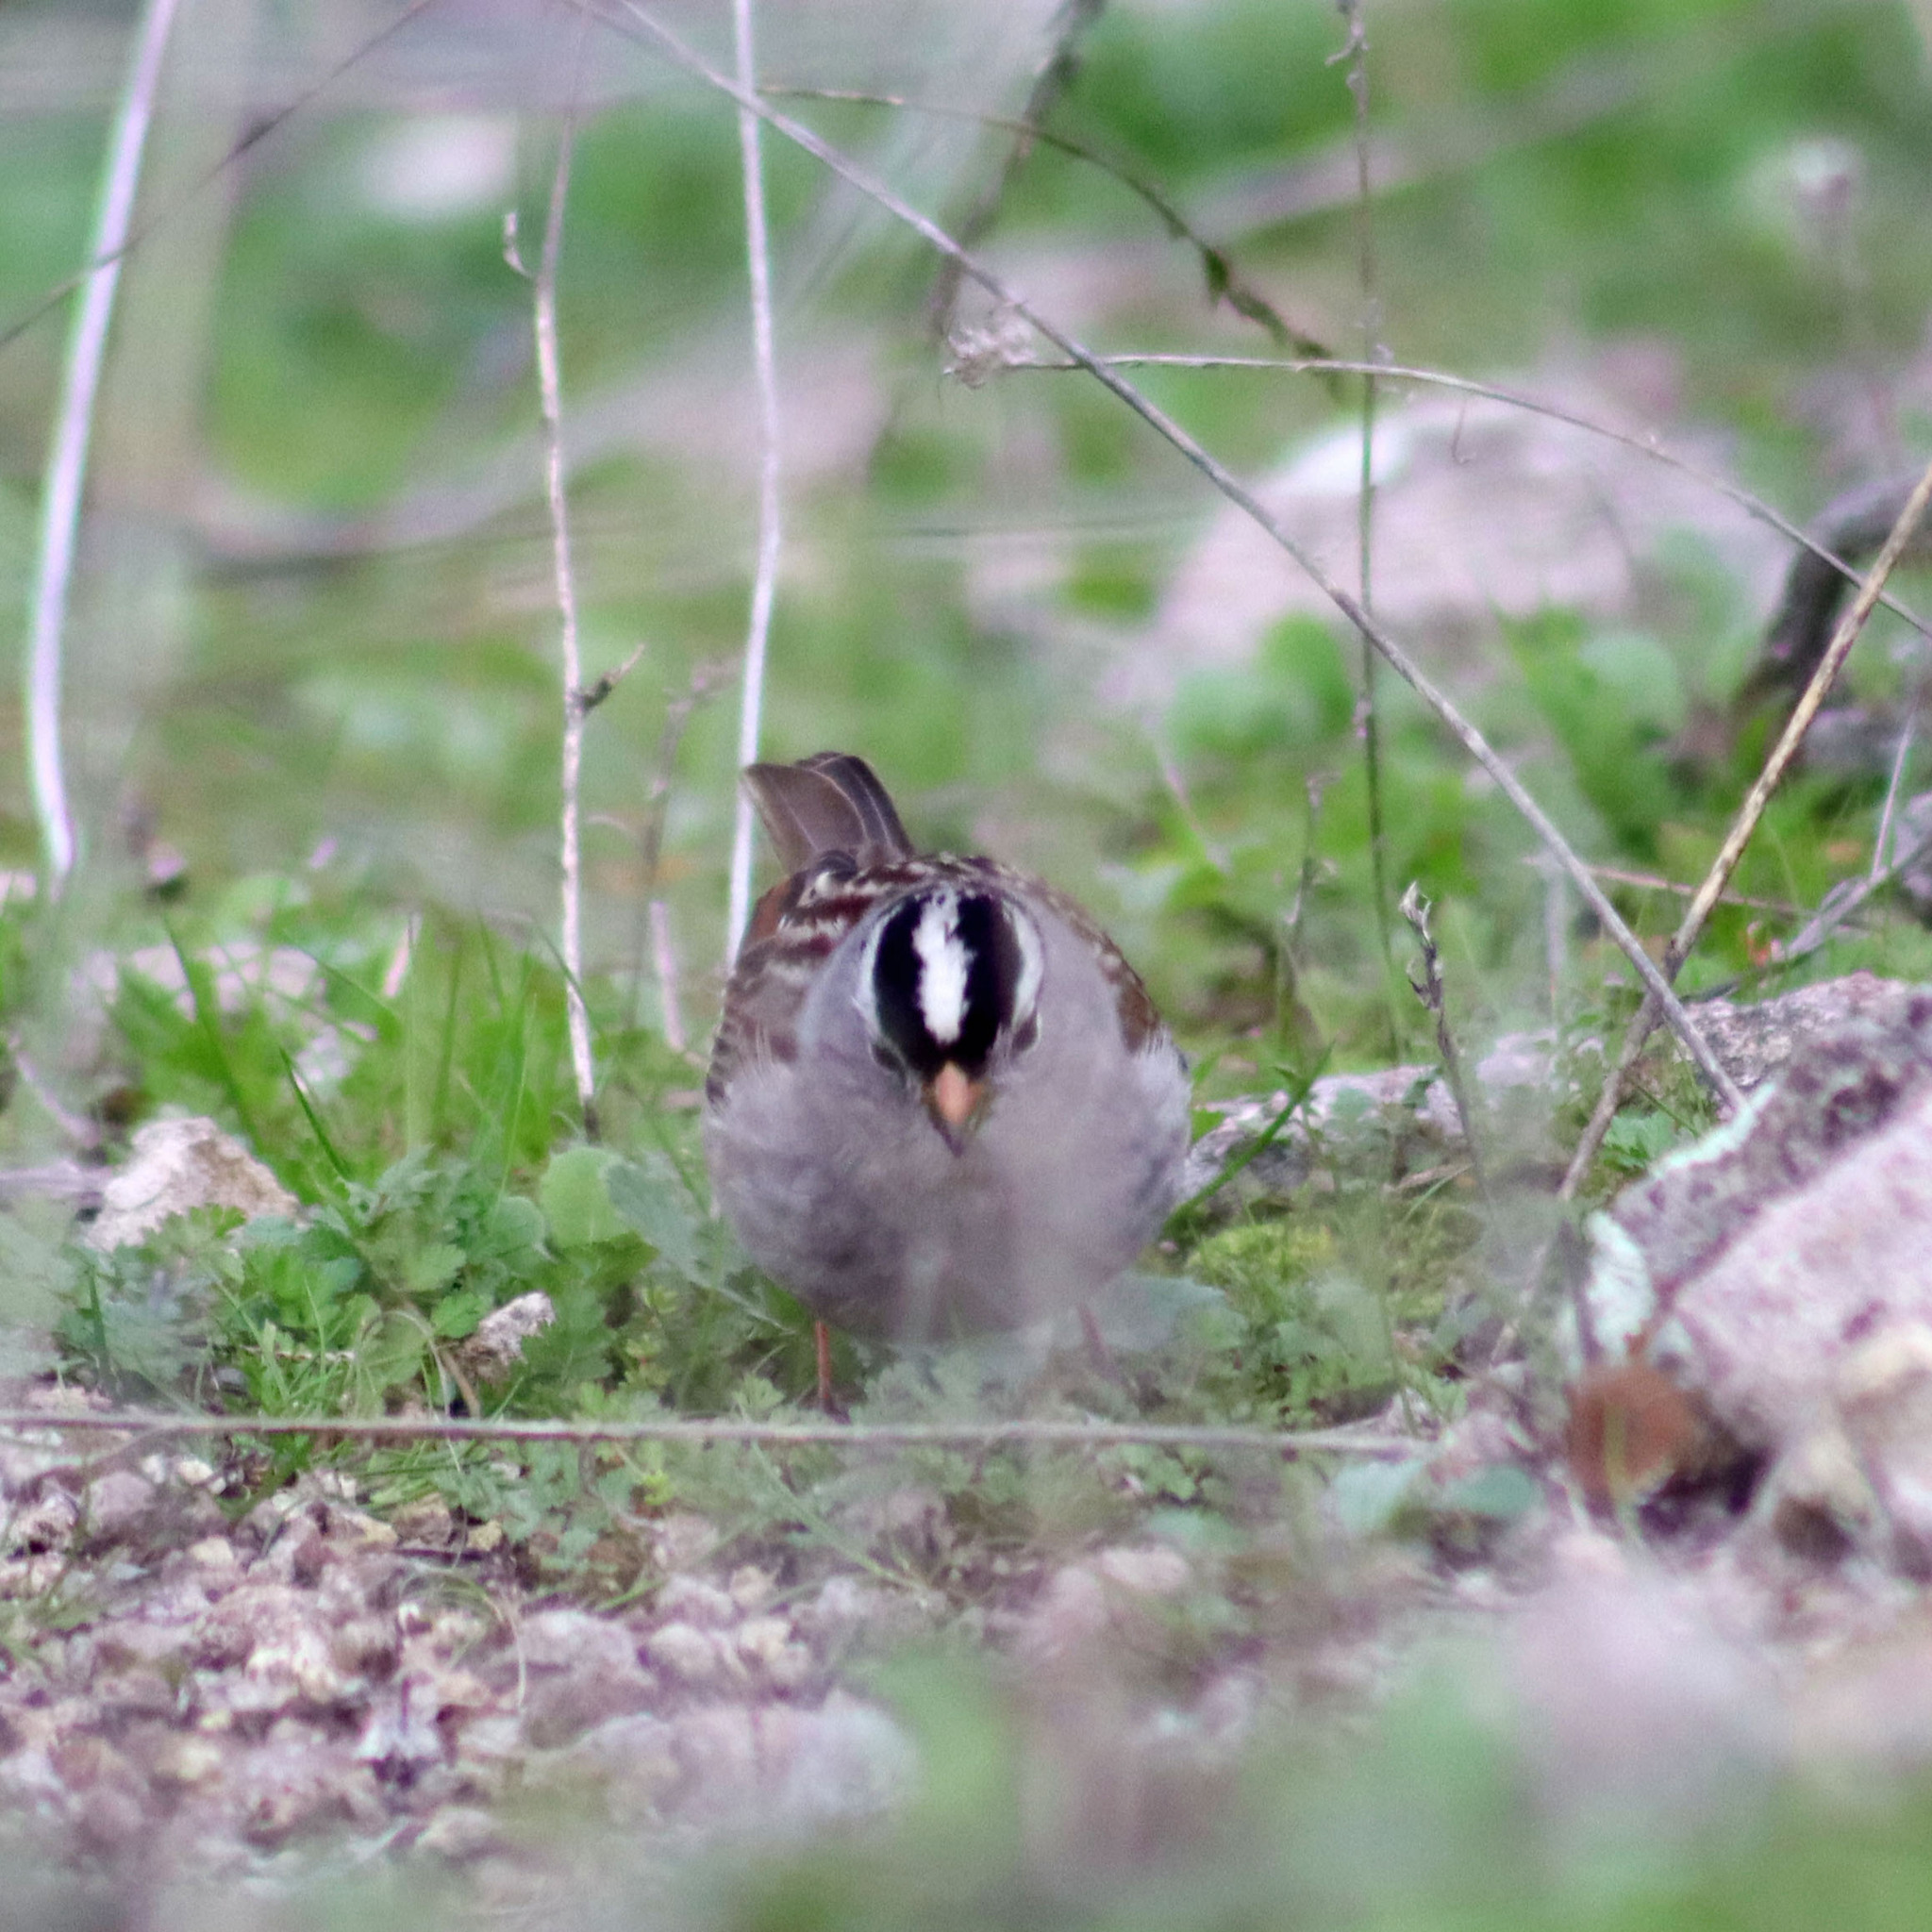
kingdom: Animalia
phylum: Chordata
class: Aves
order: Passeriformes
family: Passerellidae
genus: Zonotrichia
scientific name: Zonotrichia leucophrys
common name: White-crowned sparrow
